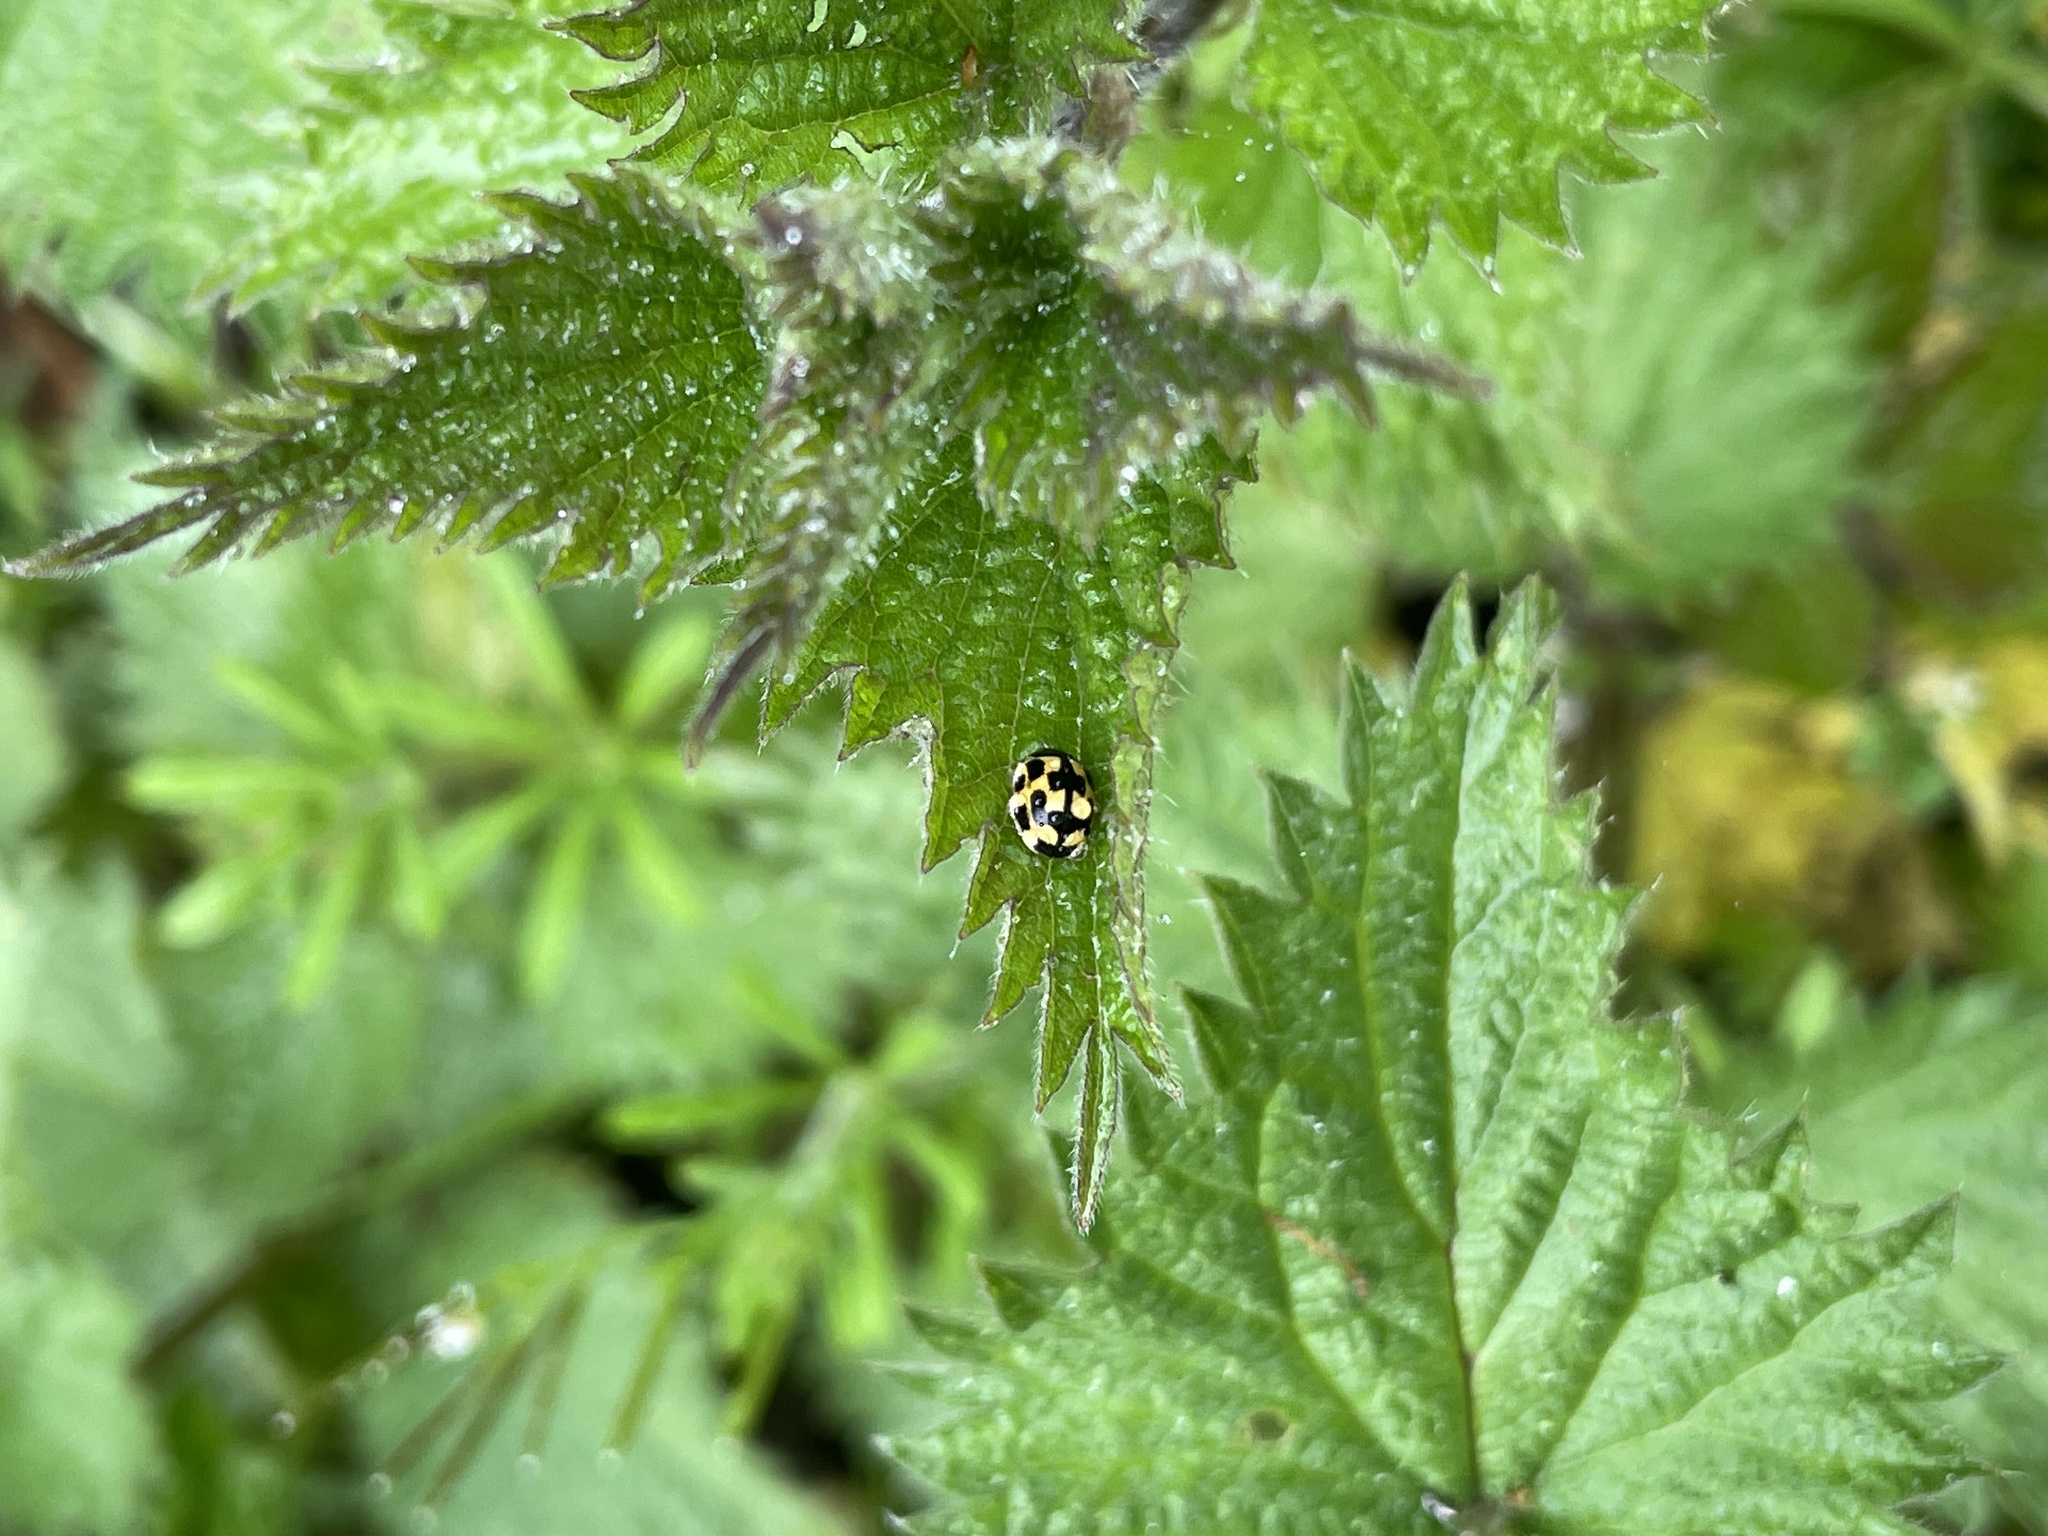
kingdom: Animalia
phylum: Arthropoda
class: Insecta
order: Coleoptera
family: Coccinellidae
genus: Propylaea
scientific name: Propylaea quatuordecimpunctata
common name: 14-spotted ladybird beetle
